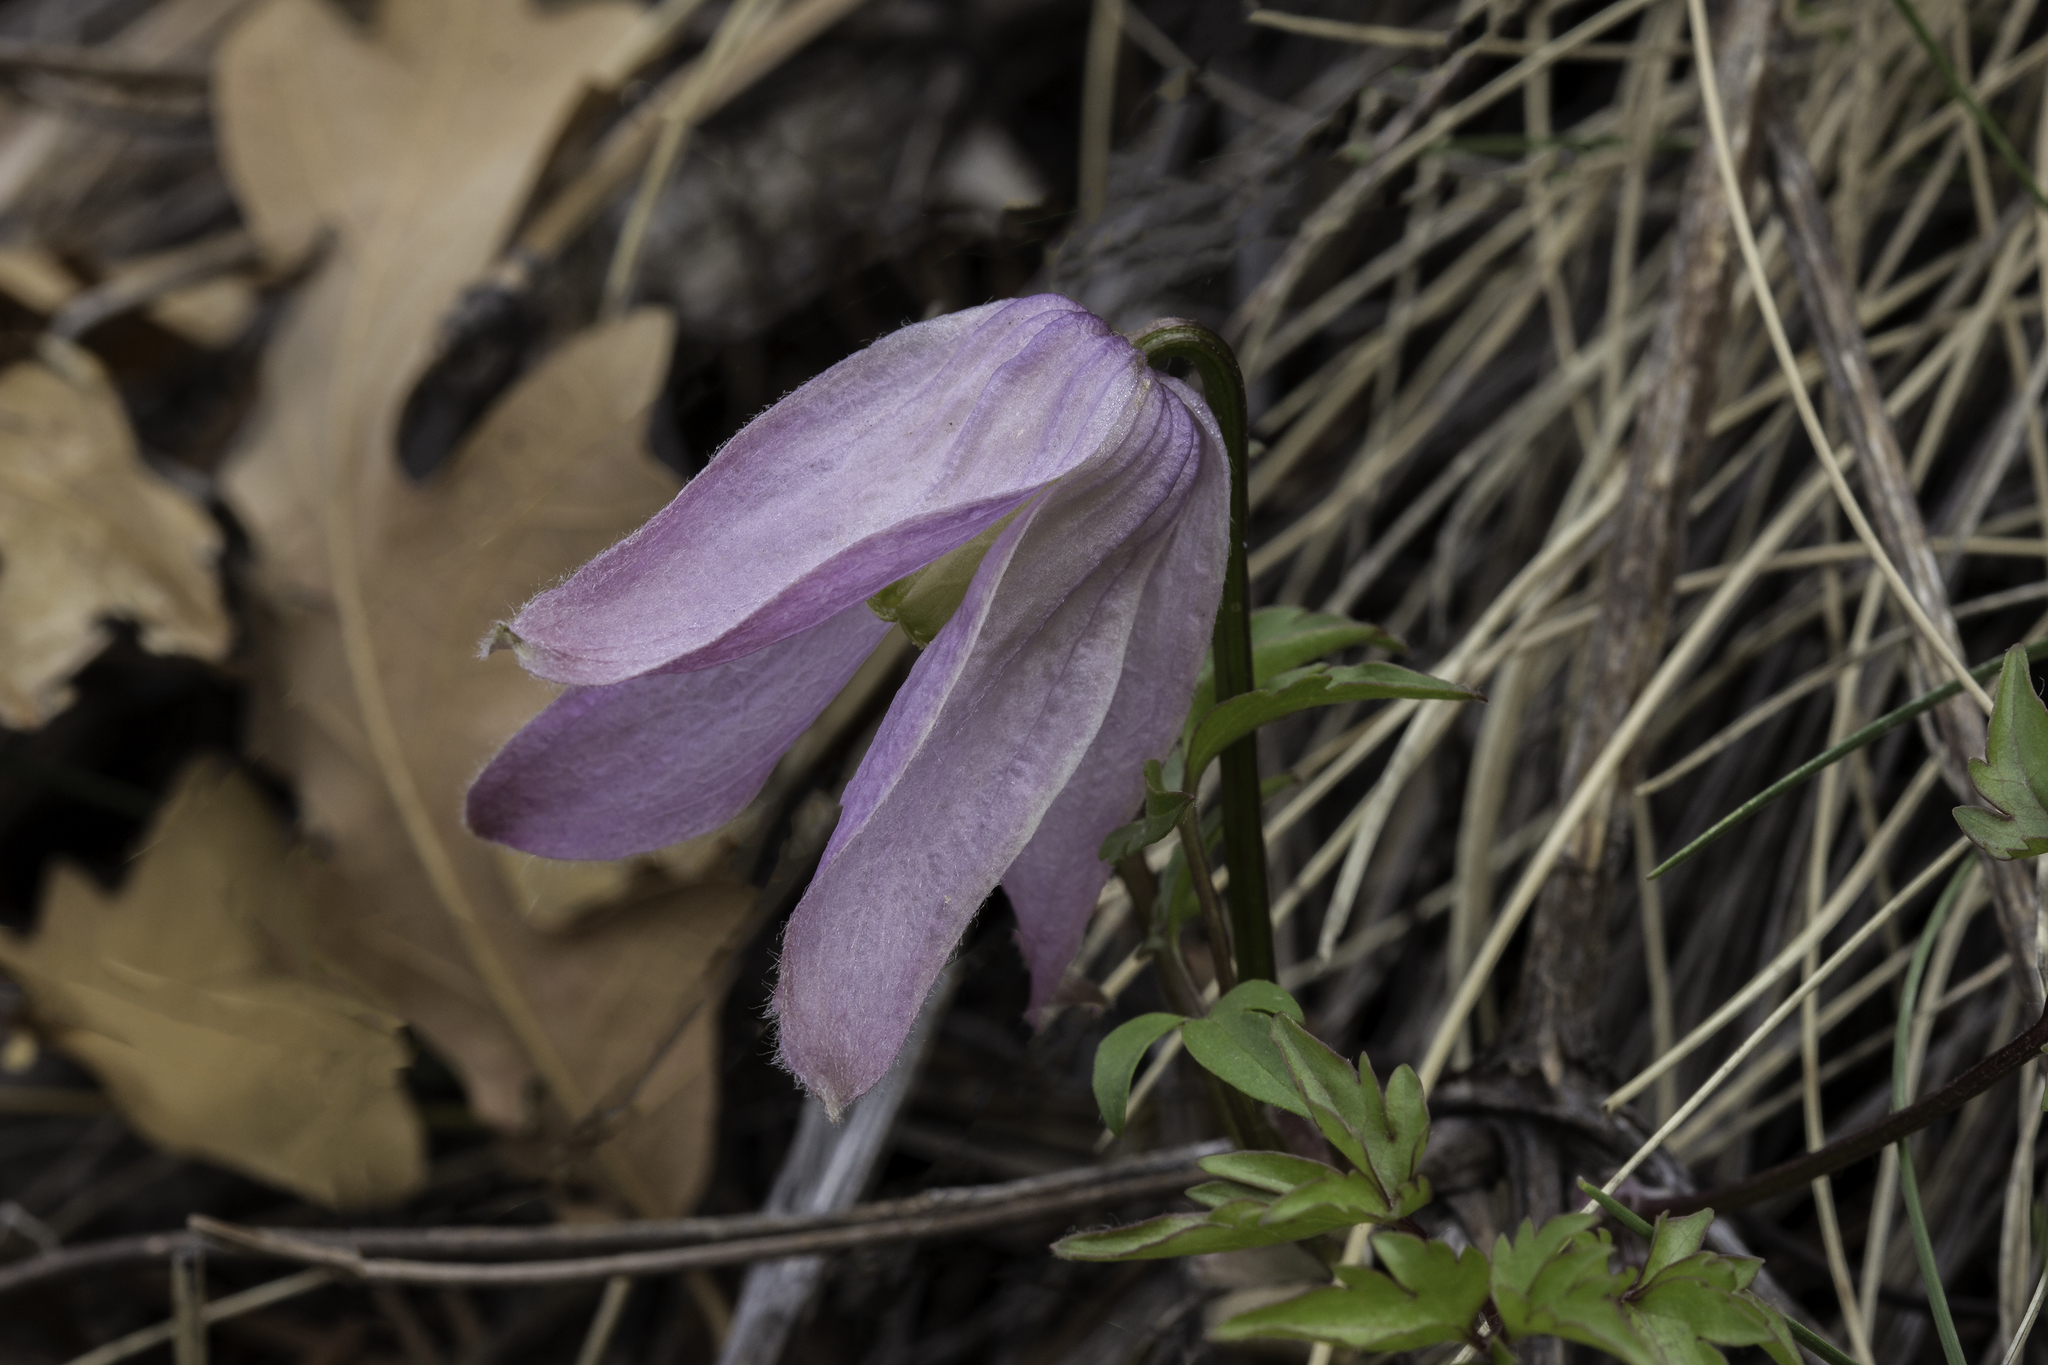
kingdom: Plantae
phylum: Tracheophyta
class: Magnoliopsida
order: Ranunculales
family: Ranunculaceae
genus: Clematis
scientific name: Clematis columbiana
